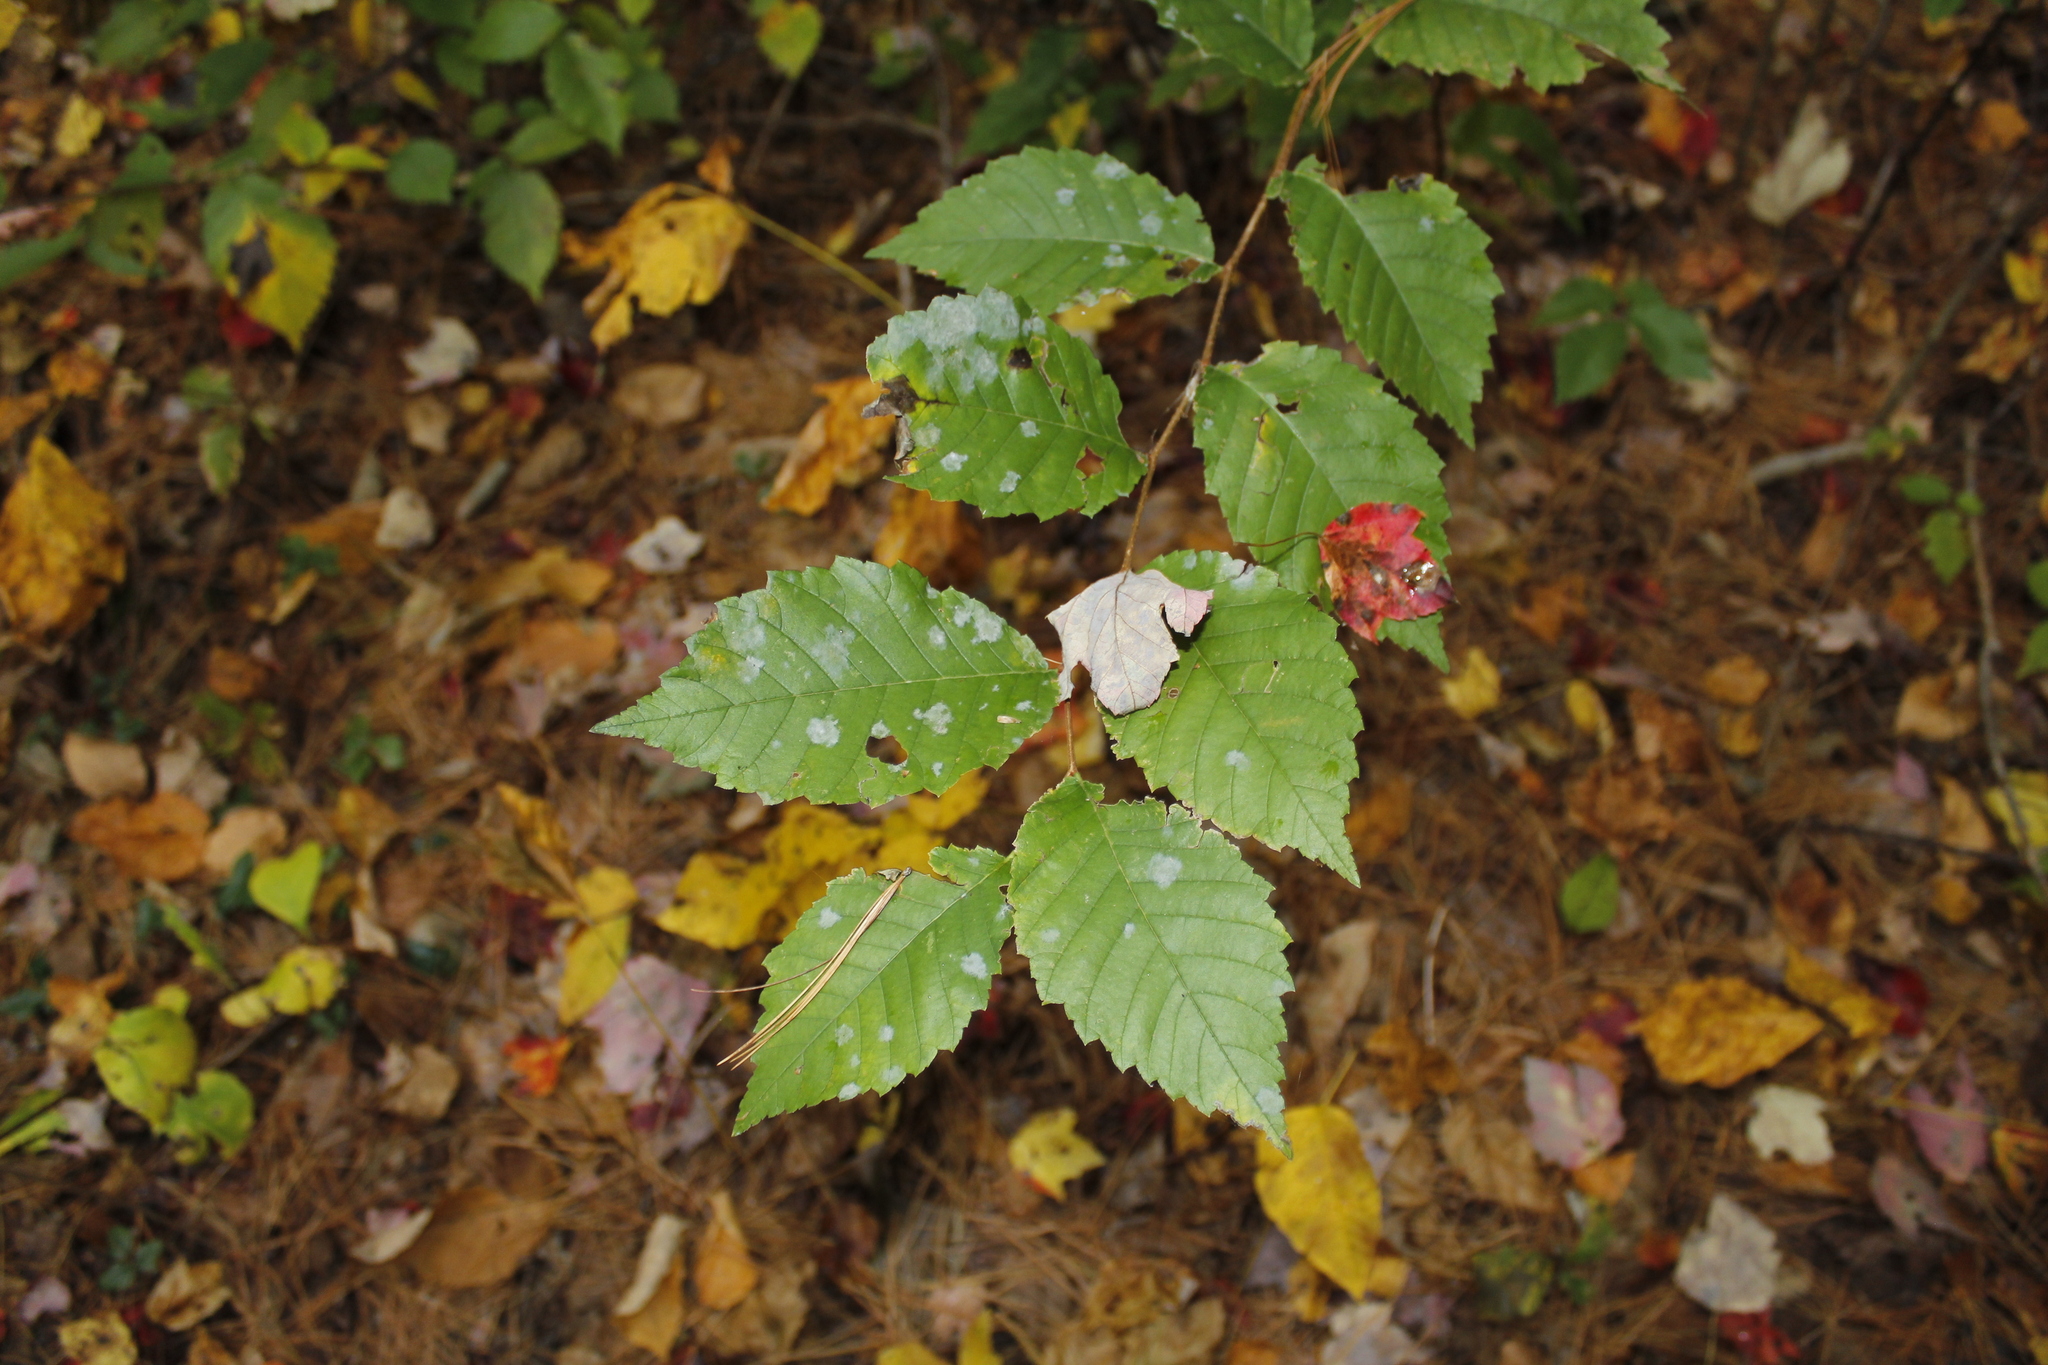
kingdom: Fungi
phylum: Ascomycota
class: Leotiomycetes
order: Helotiales
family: Erysiphaceae
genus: Erysiphe
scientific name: Erysiphe macrospora
